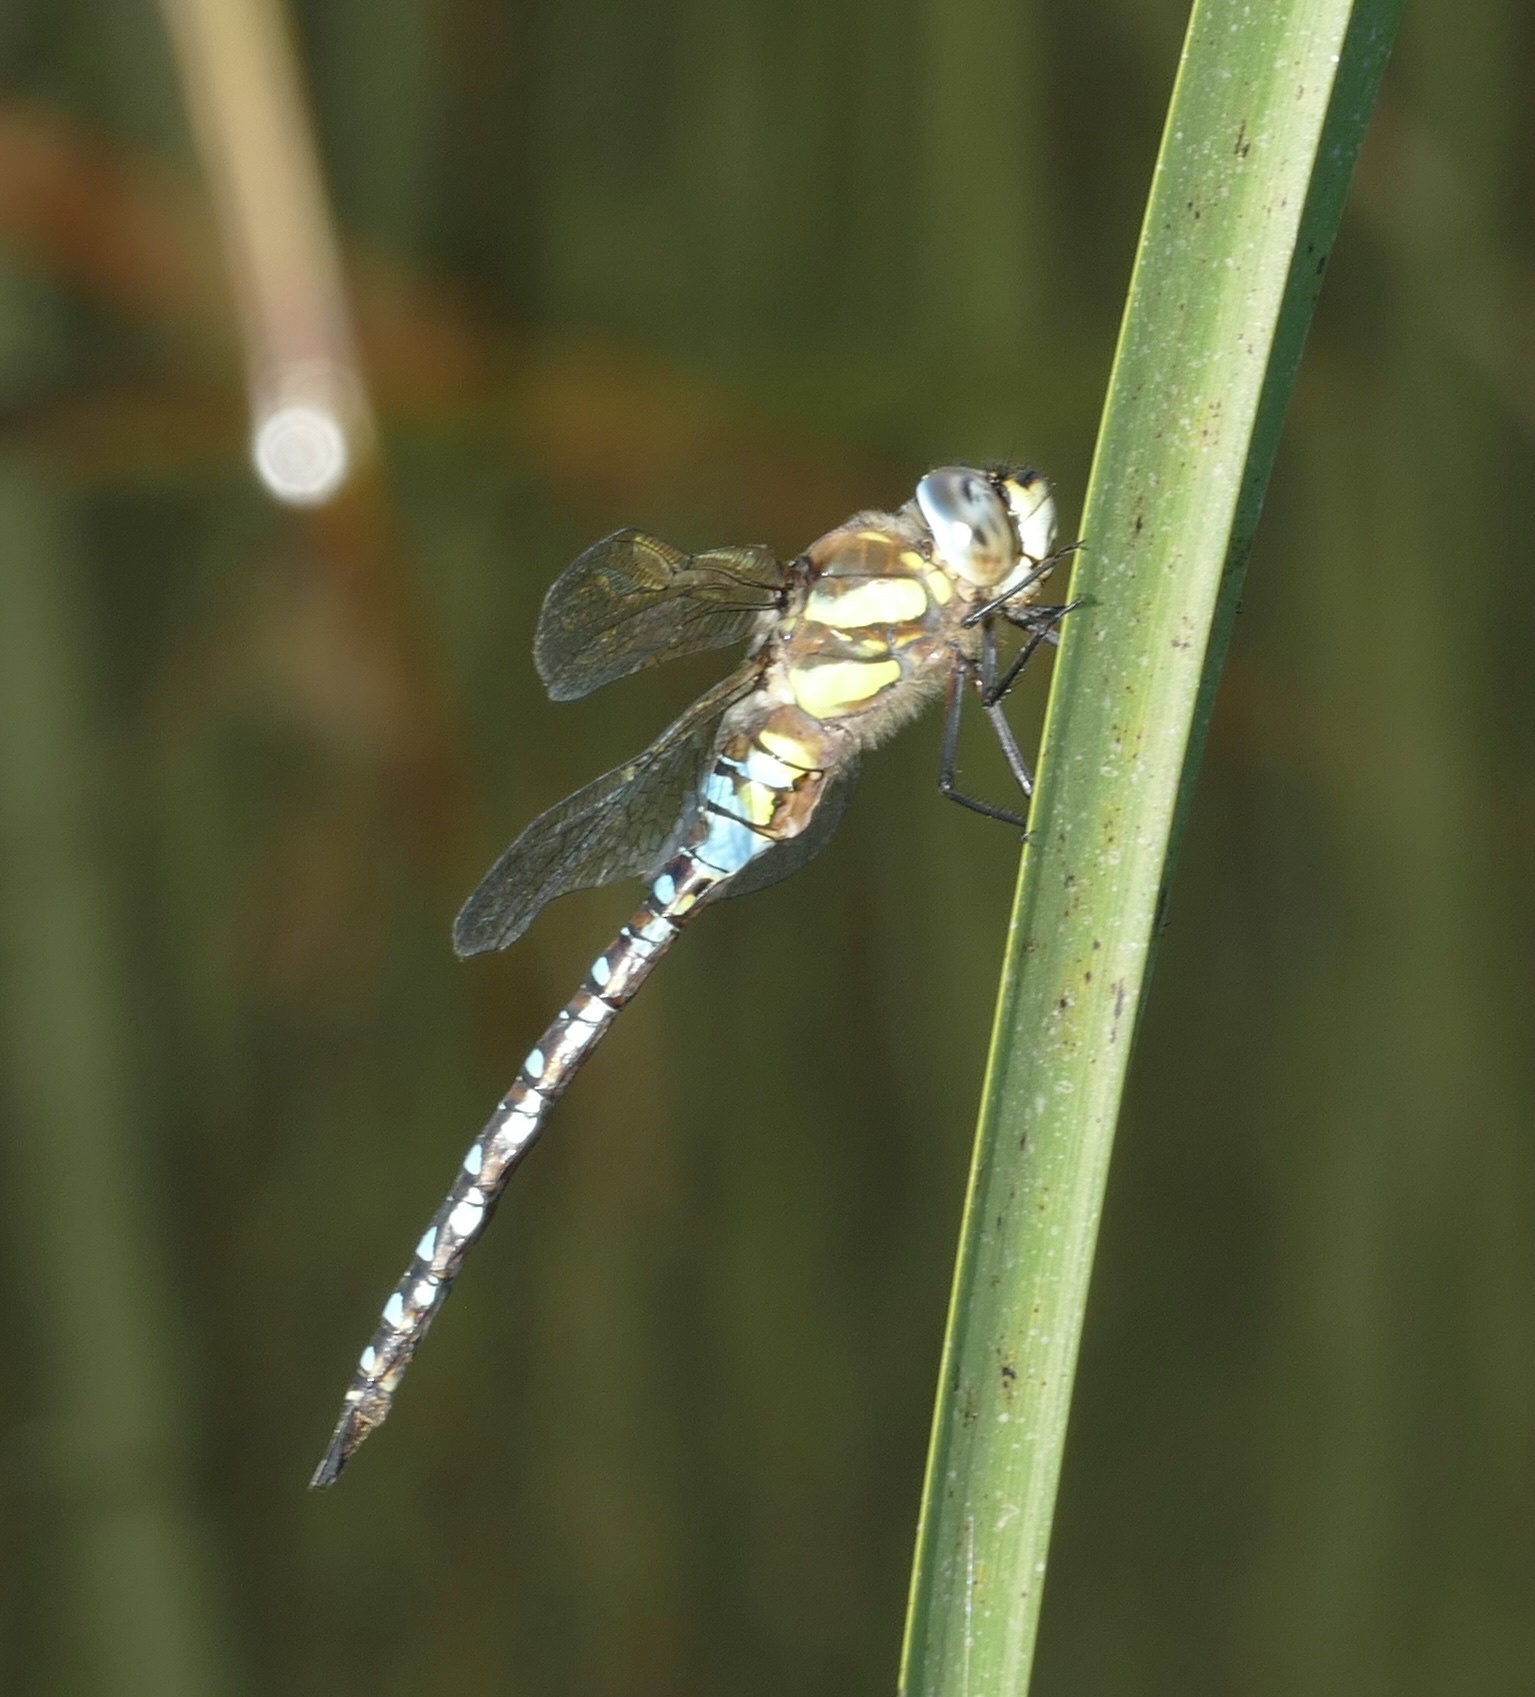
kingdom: Animalia
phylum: Arthropoda
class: Insecta
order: Odonata
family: Aeshnidae
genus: Aeshna
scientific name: Aeshna mixta
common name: Migrant hawker
